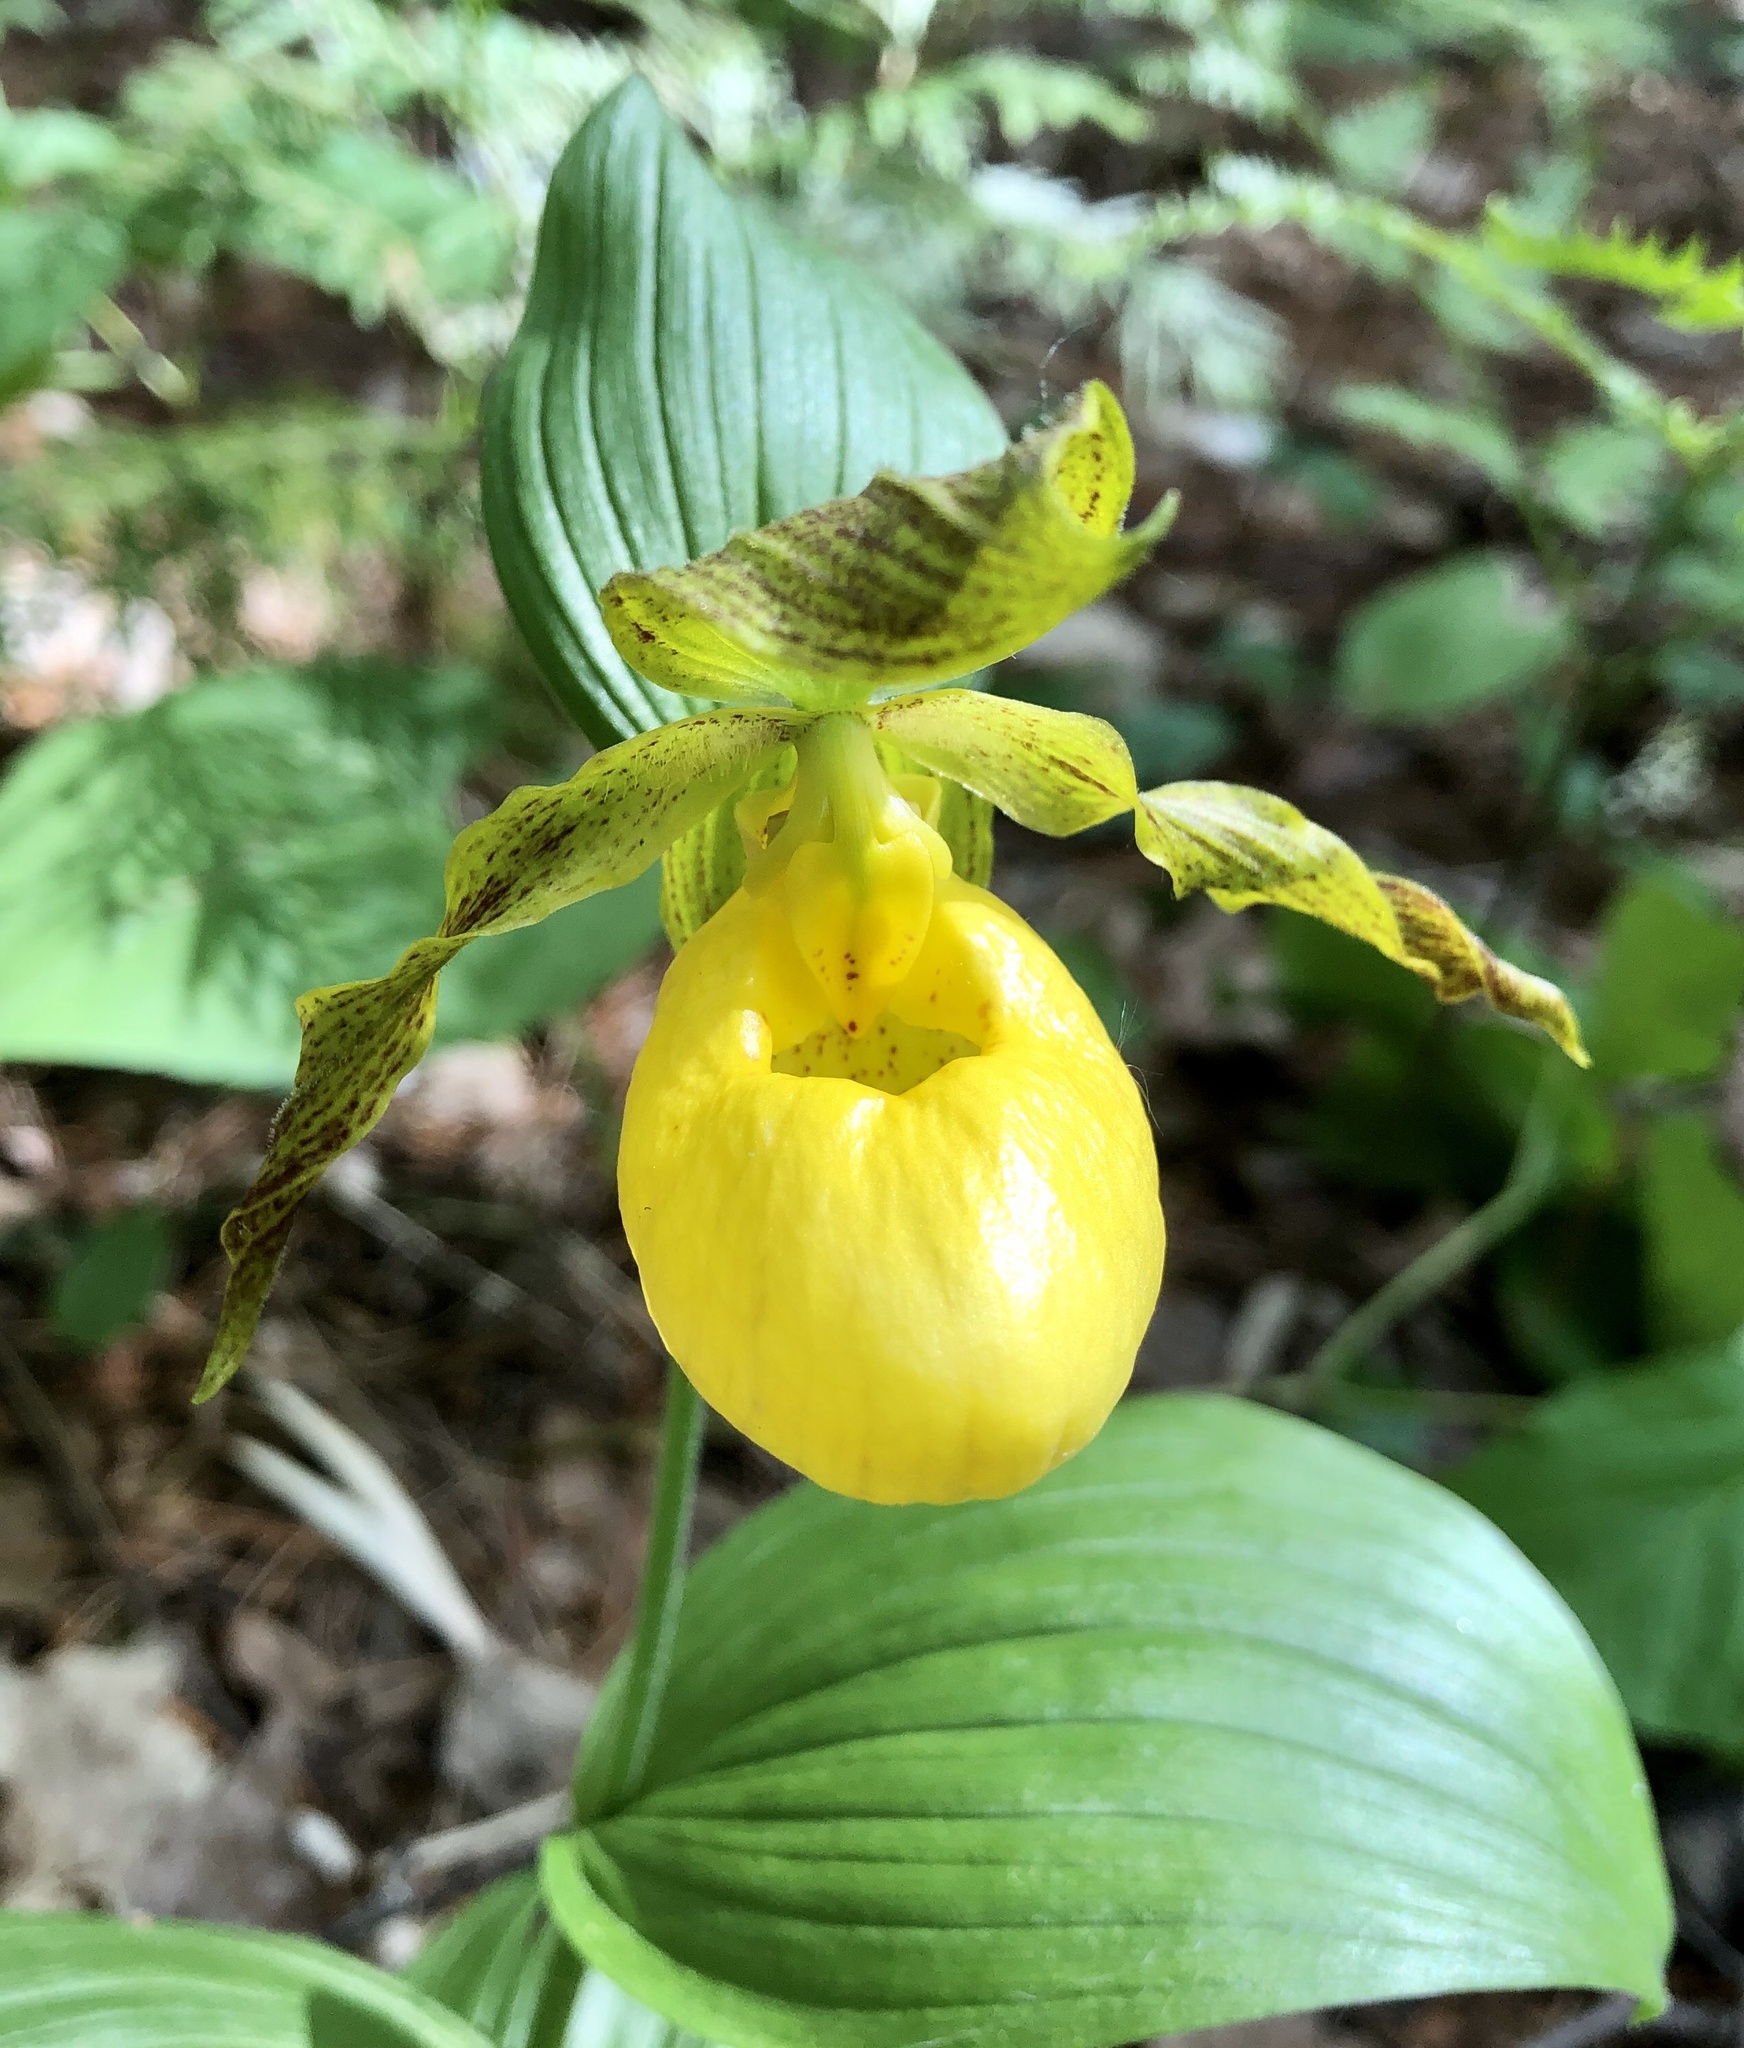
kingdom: Plantae
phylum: Tracheophyta
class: Liliopsida
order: Asparagales
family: Orchidaceae
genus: Cypripedium
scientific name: Cypripedium parviflorum
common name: American yellow lady's-slipper
